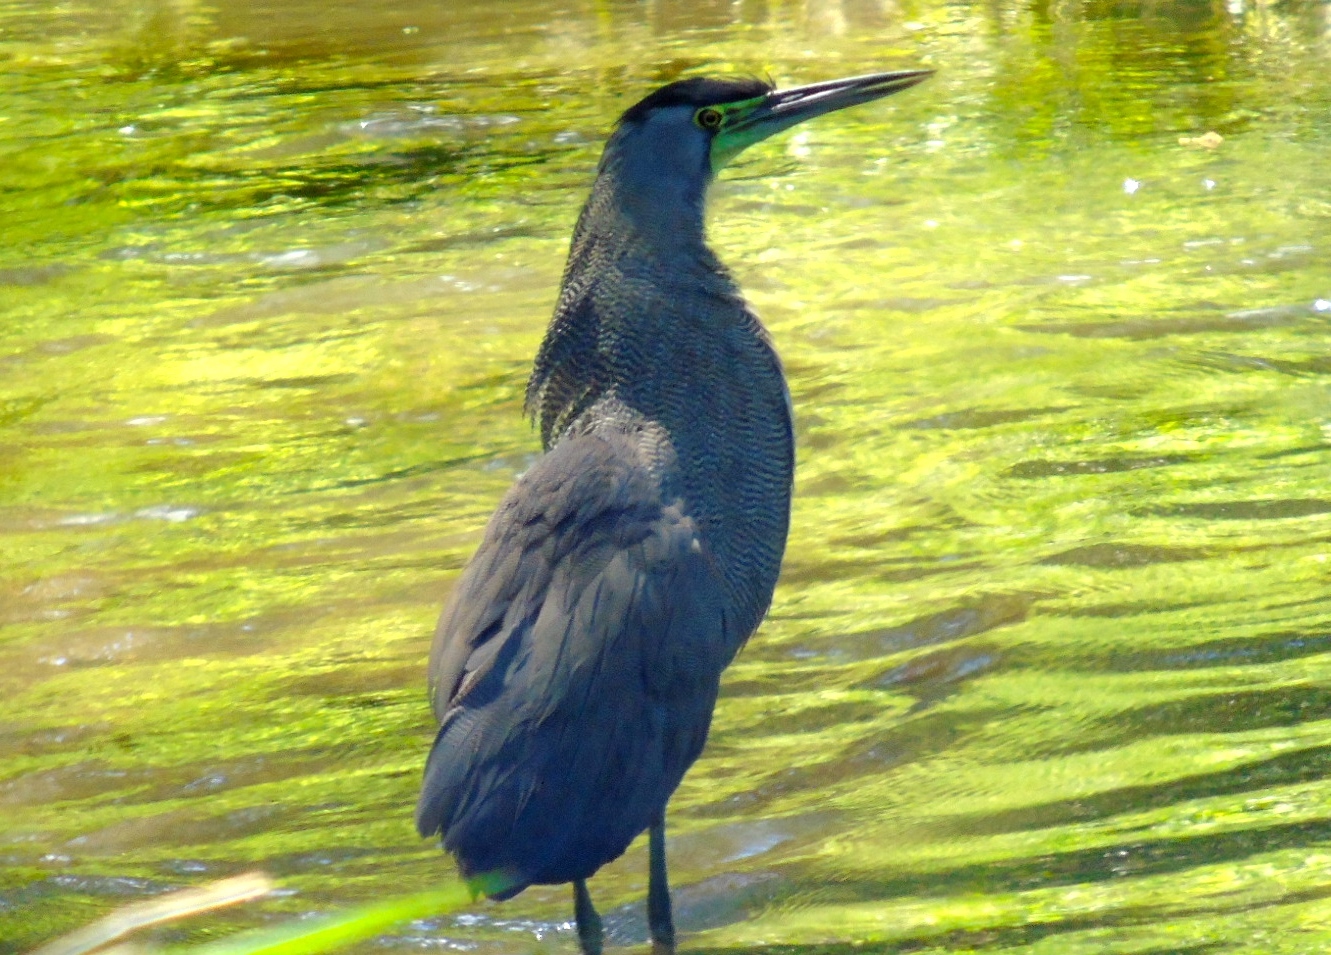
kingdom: Animalia
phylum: Chordata
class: Aves
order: Pelecaniformes
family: Ardeidae
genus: Tigrisoma
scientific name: Tigrisoma mexicanum
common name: Bare-throated tiger-heron
